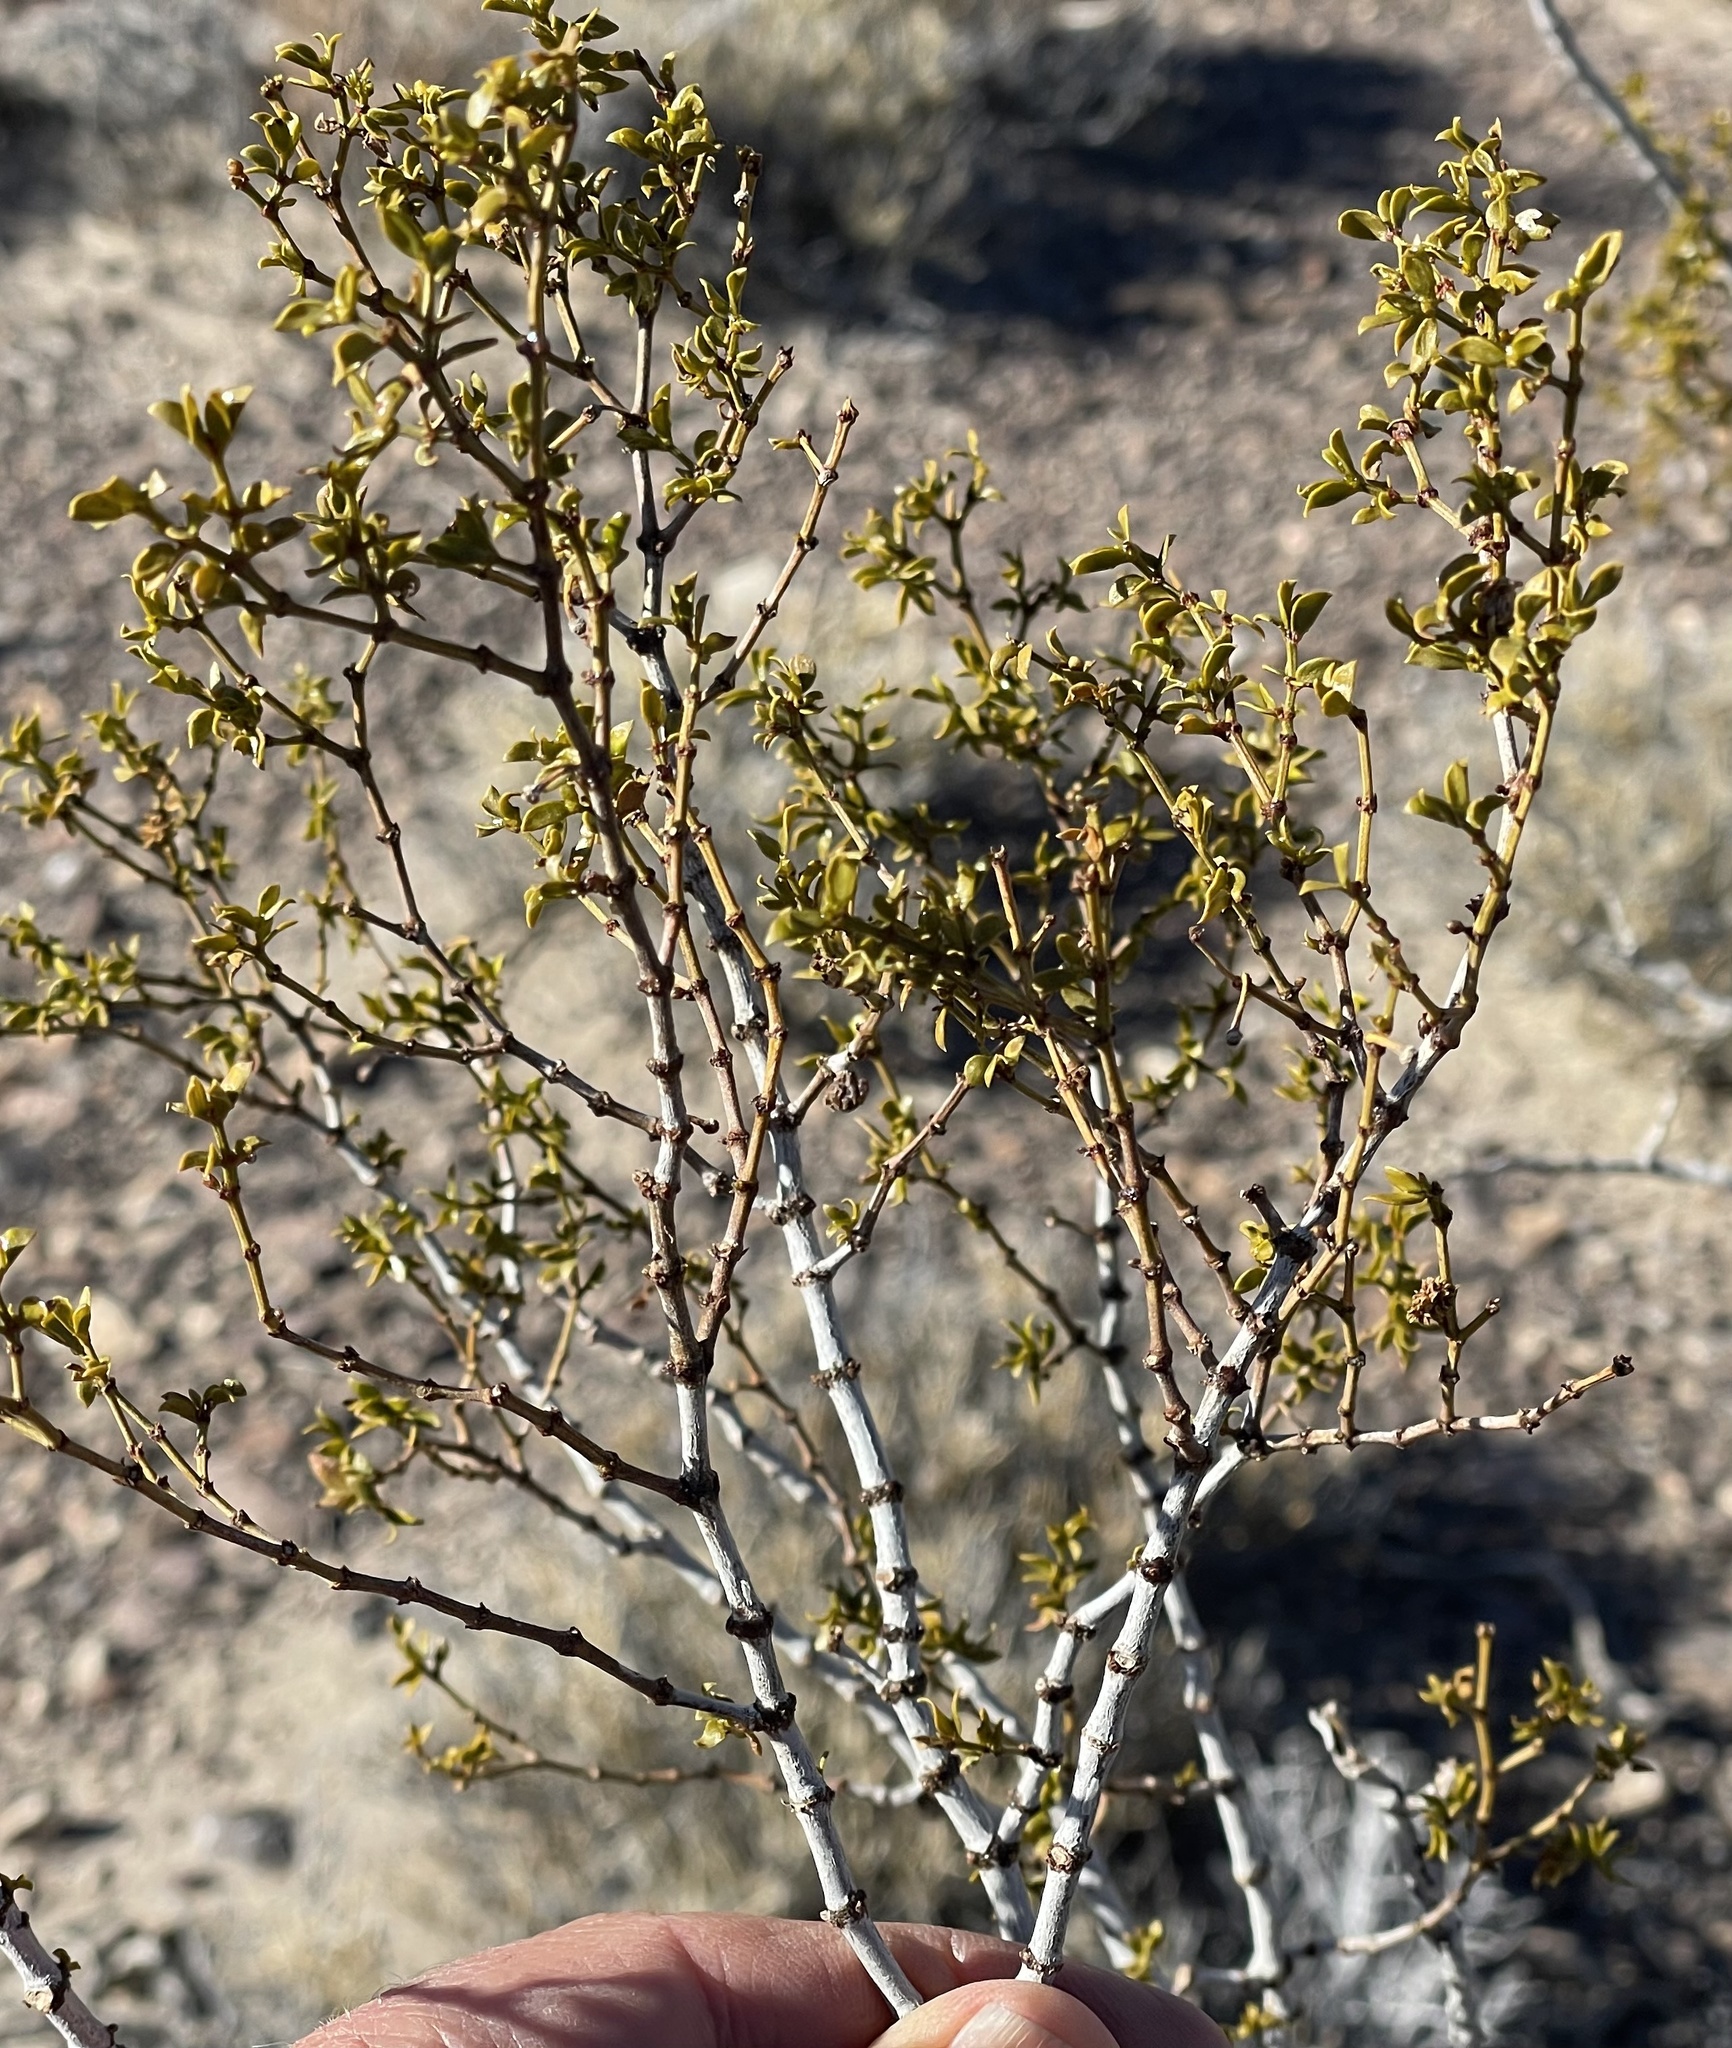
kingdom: Plantae
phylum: Tracheophyta
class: Magnoliopsida
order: Zygophyllales
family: Zygophyllaceae
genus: Larrea
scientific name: Larrea tridentata
